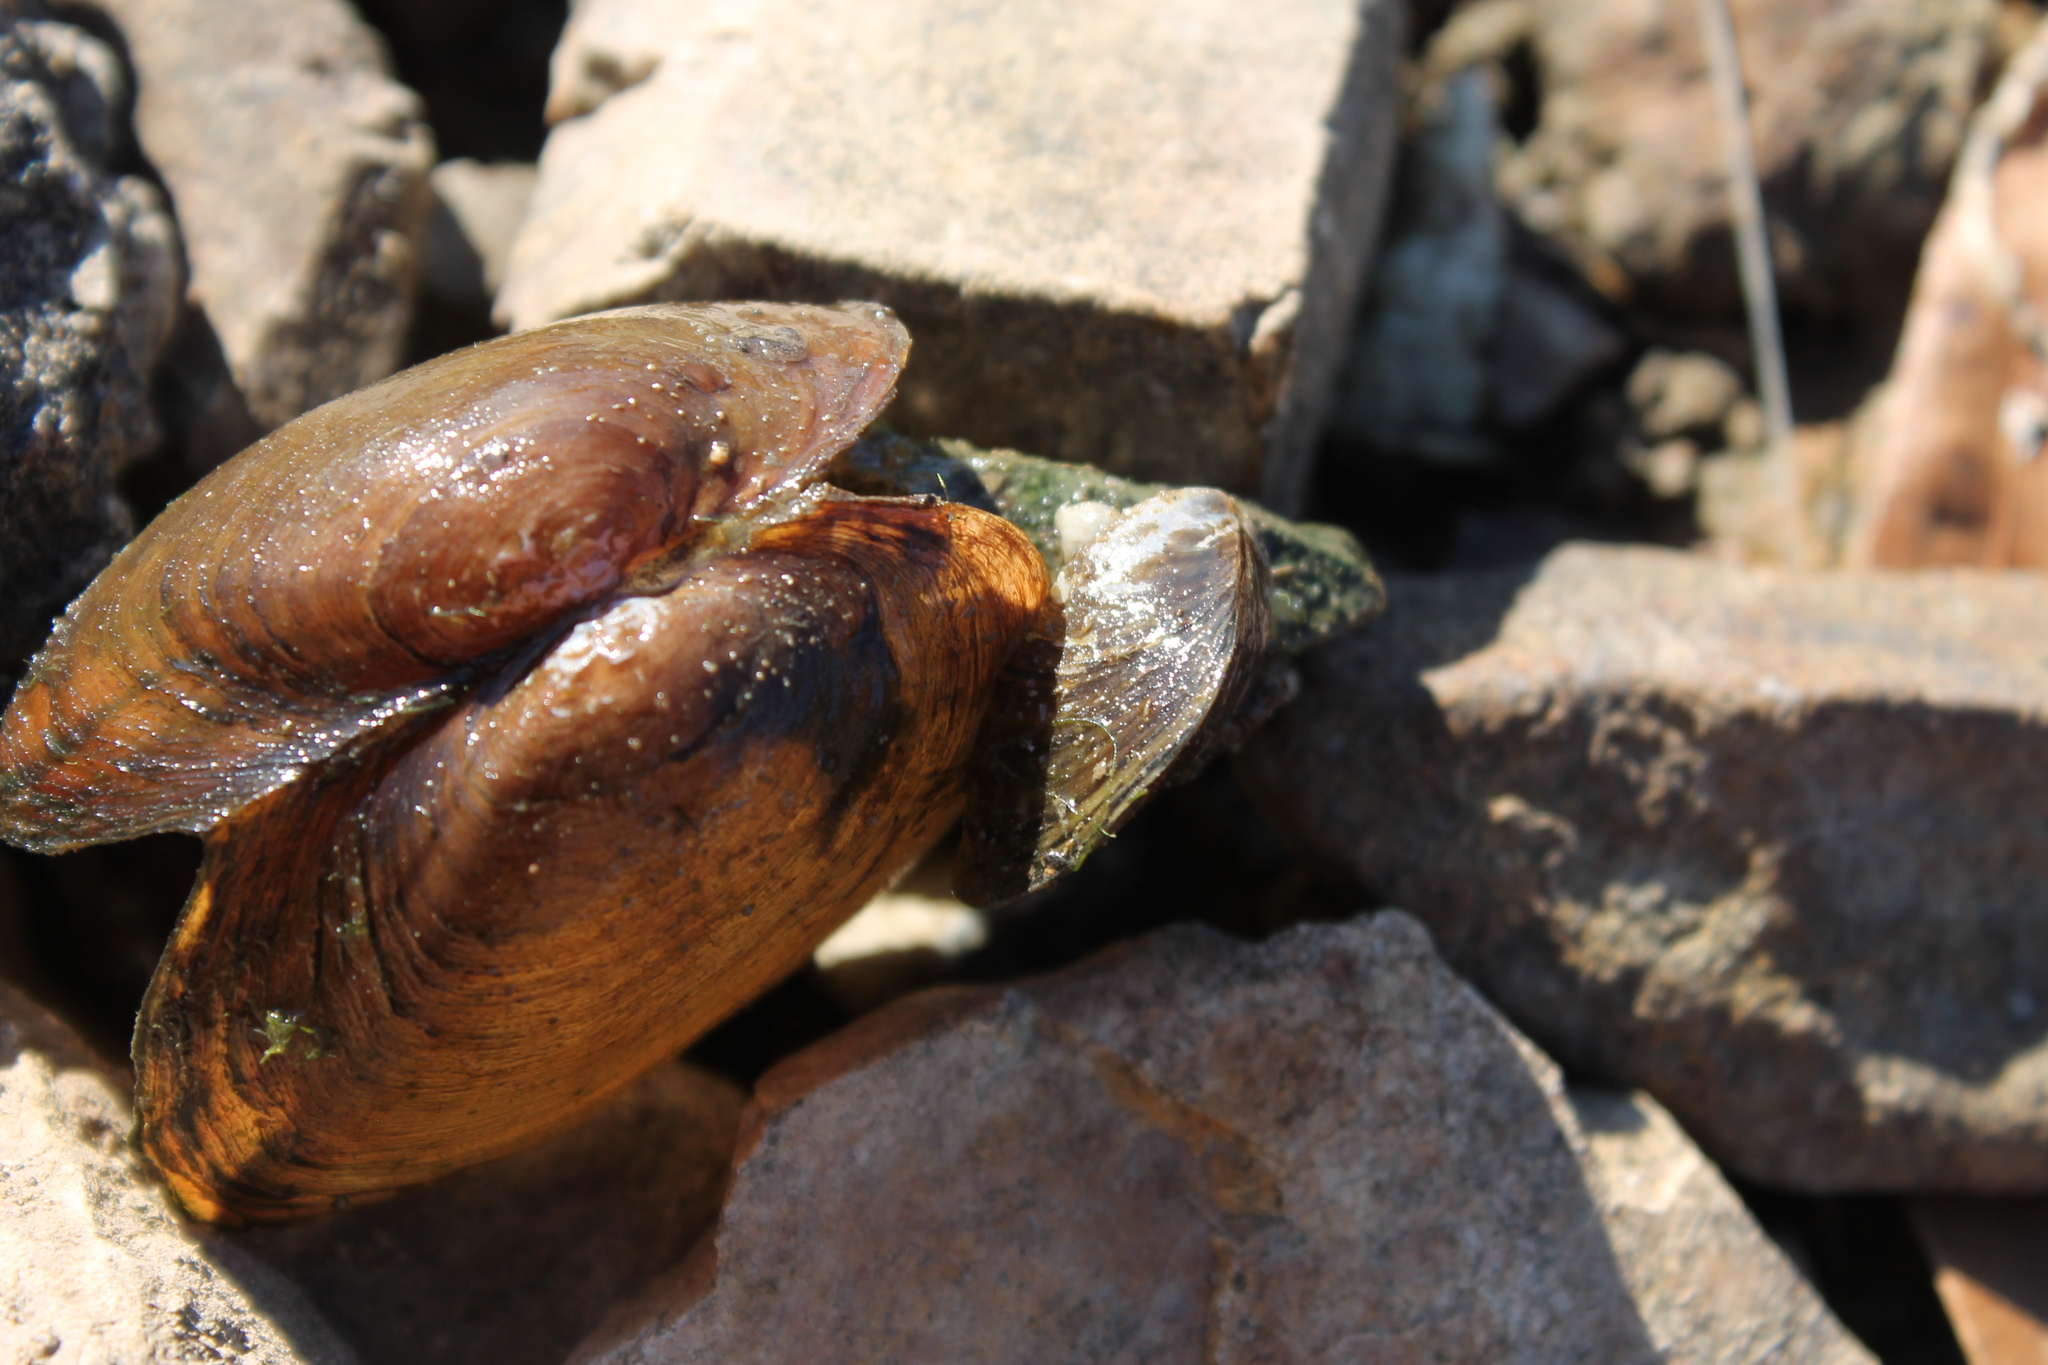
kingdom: Animalia
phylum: Mollusca
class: Bivalvia
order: Myida
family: Dreissenidae
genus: Dreissena
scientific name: Dreissena polymorpha
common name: Zebra mussel
